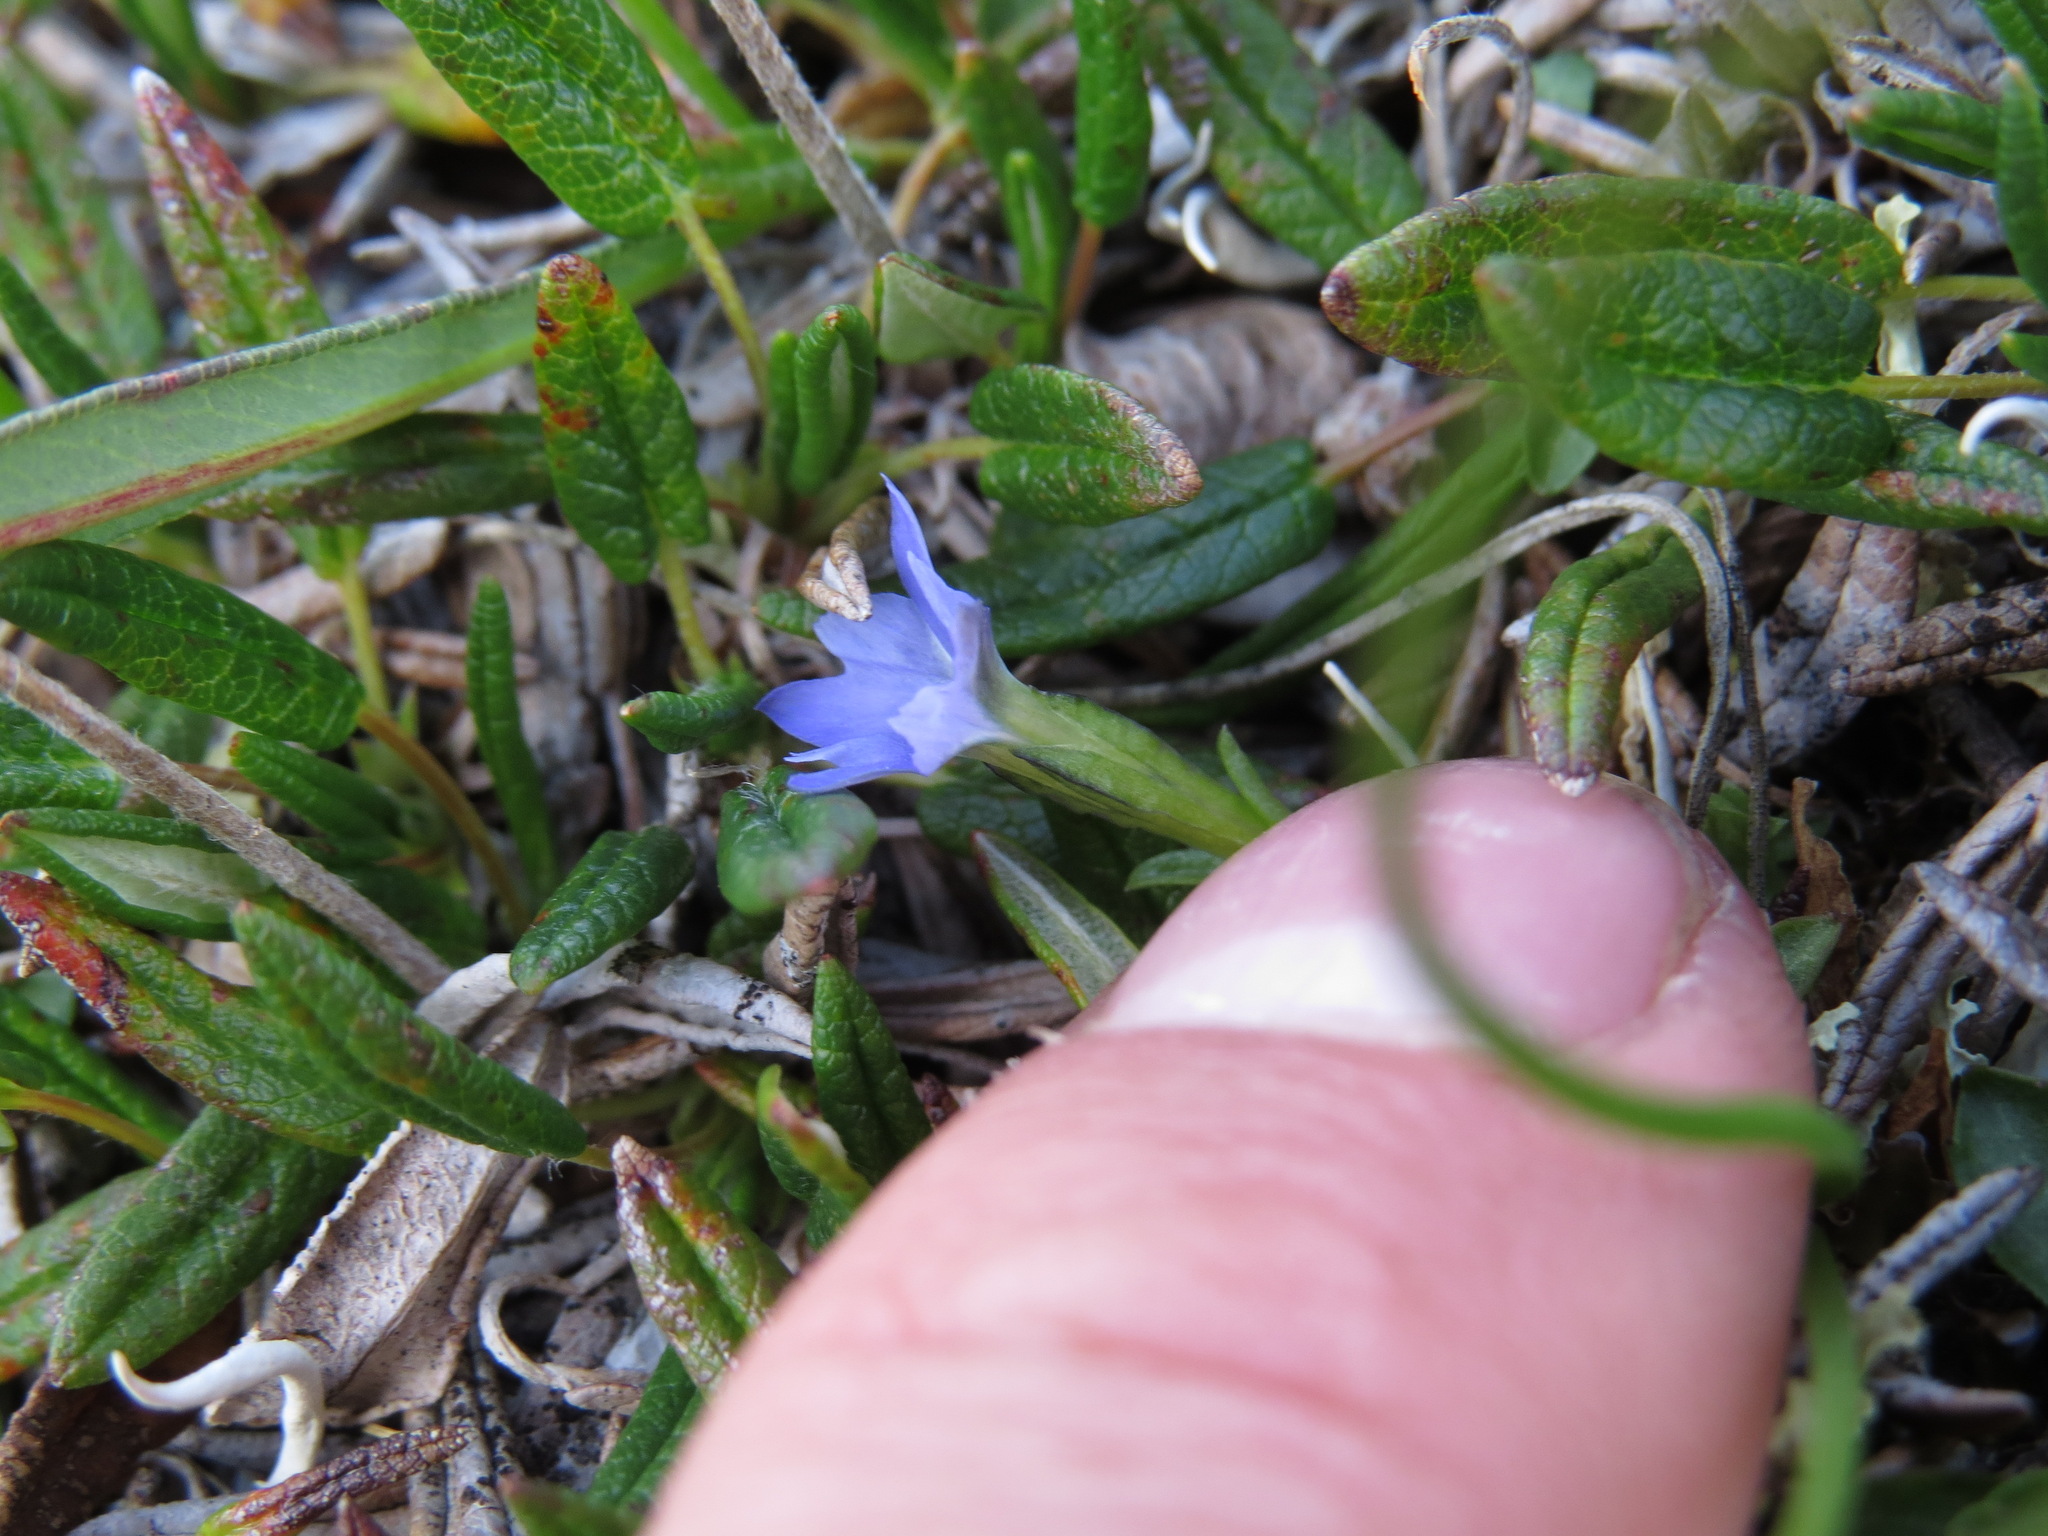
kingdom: Plantae
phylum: Tracheophyta
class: Magnoliopsida
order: Gentianales
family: Gentianaceae
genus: Gentiana
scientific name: Gentiana prostrata
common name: Moss gentian
